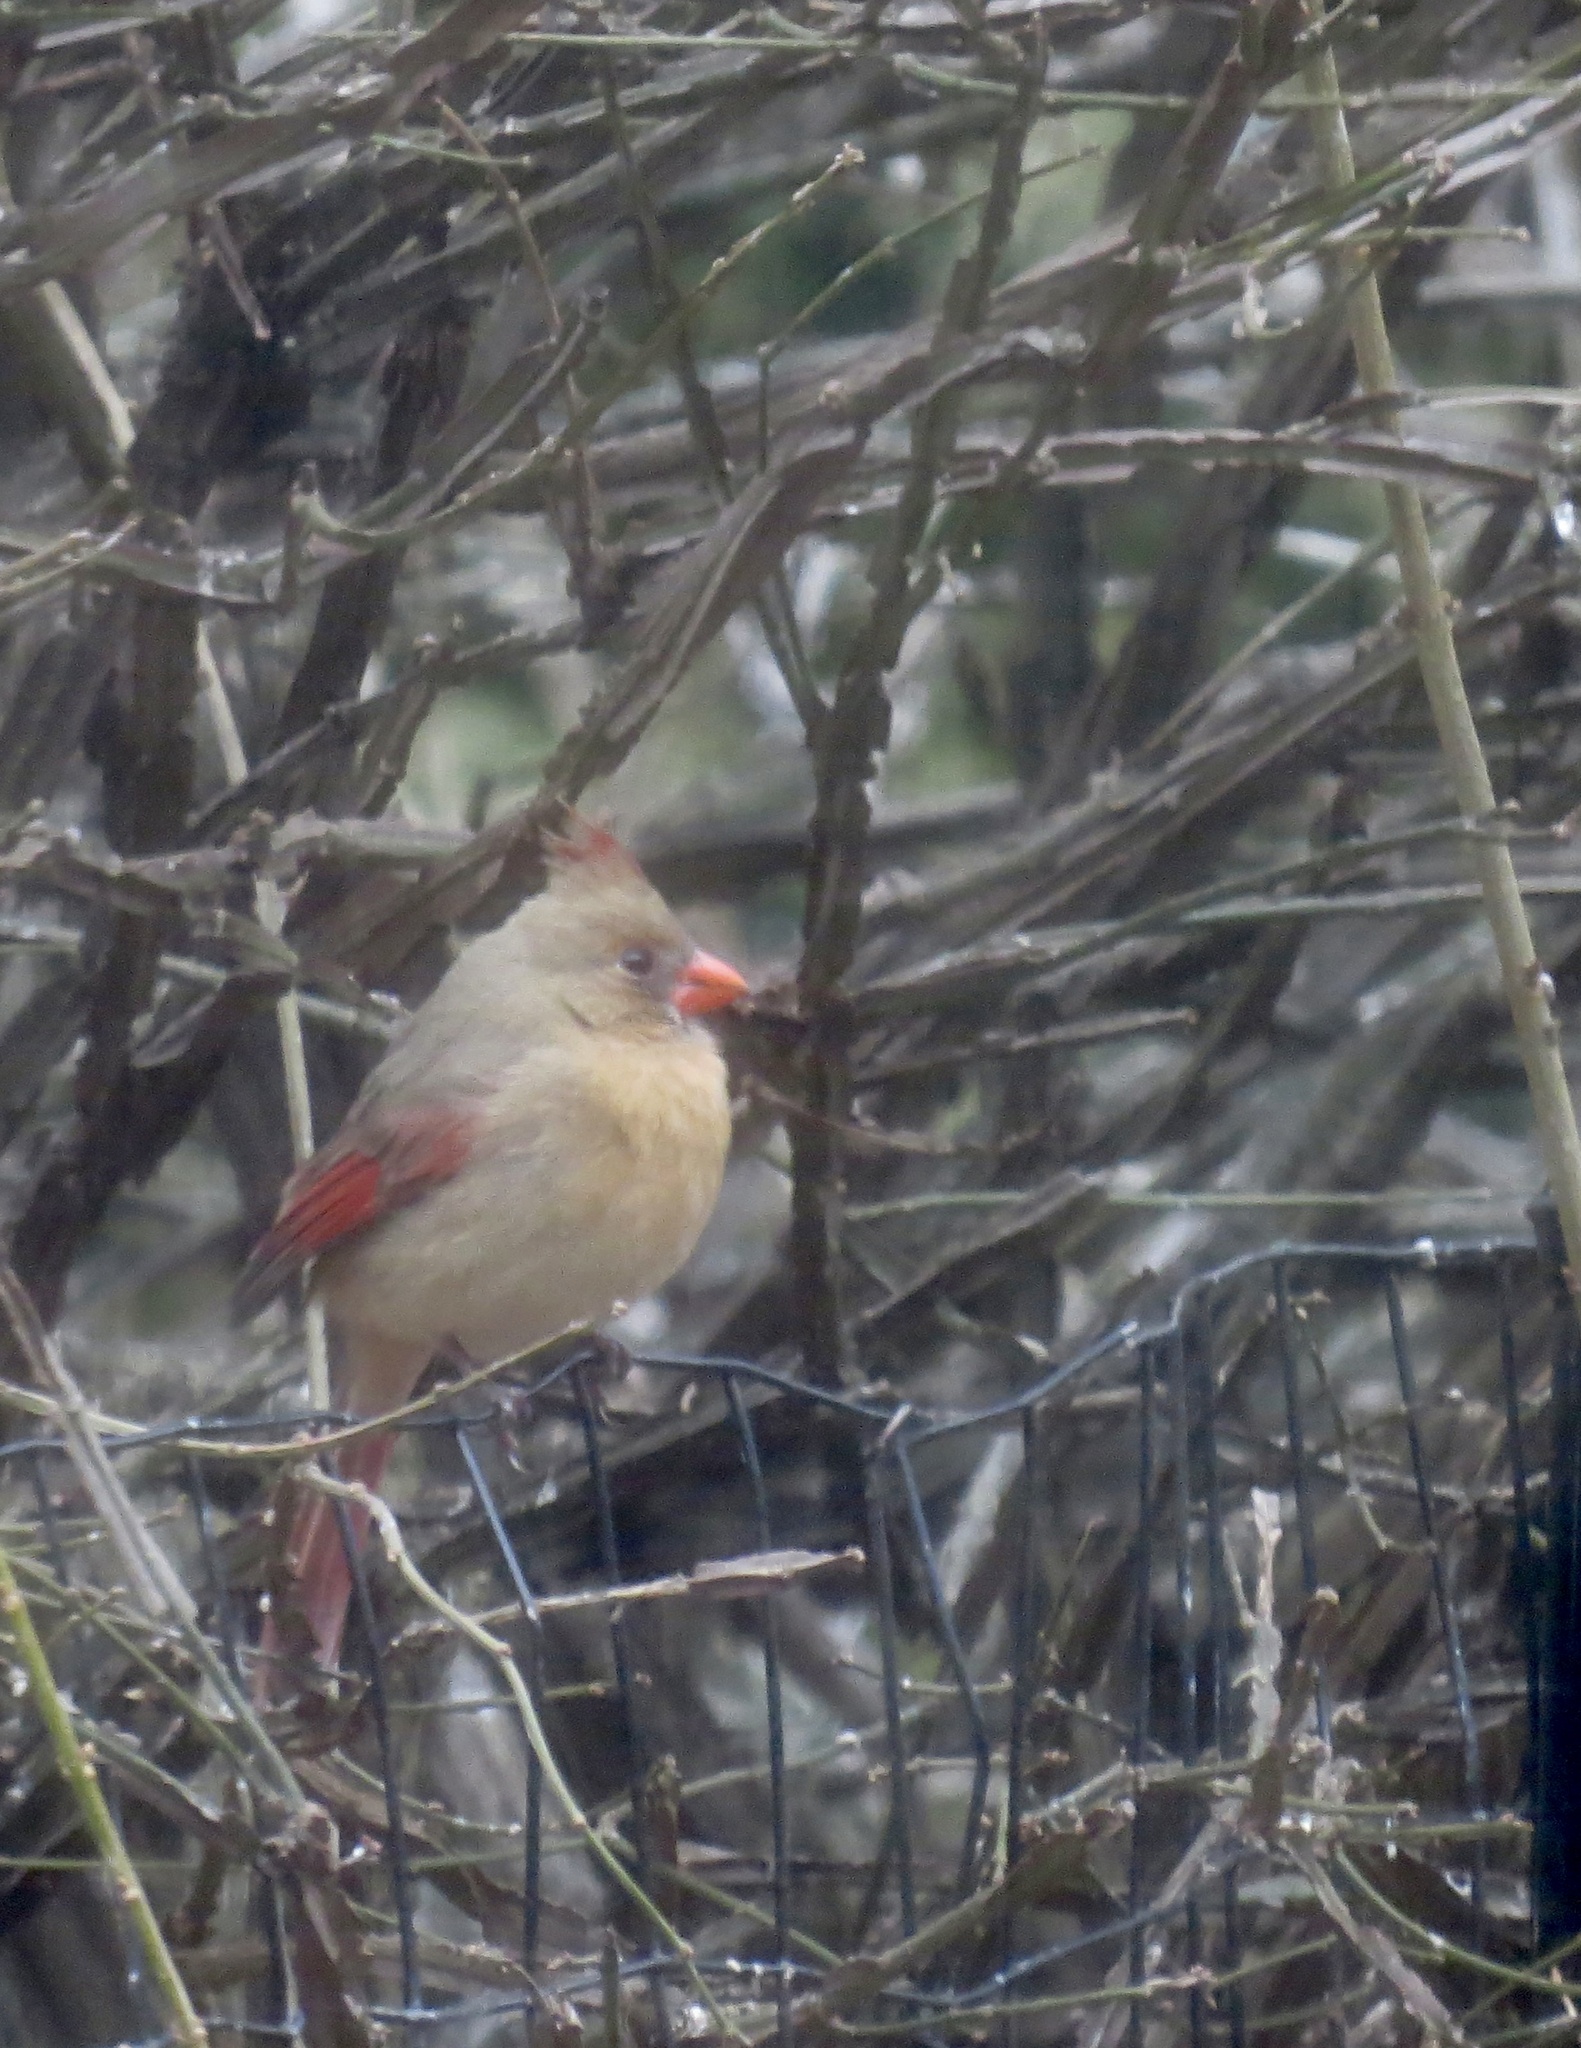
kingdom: Animalia
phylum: Chordata
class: Aves
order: Passeriformes
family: Cardinalidae
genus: Cardinalis
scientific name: Cardinalis cardinalis
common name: Northern cardinal
